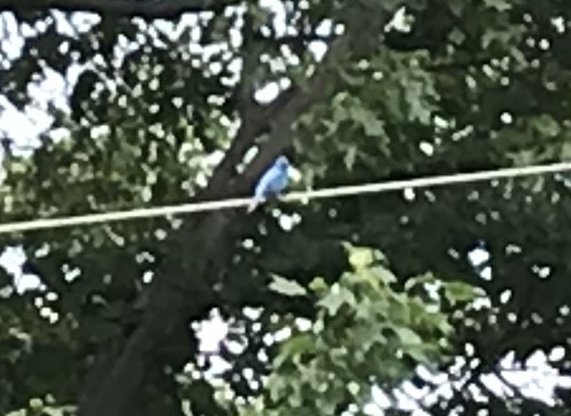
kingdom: Animalia
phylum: Chordata
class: Aves
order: Passeriformes
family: Cardinalidae
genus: Passerina
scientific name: Passerina cyanea
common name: Indigo bunting
